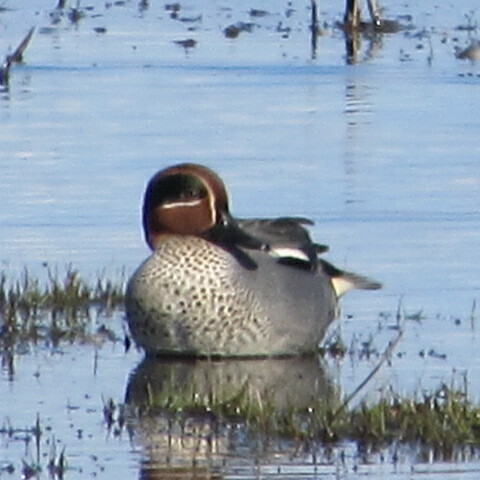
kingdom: Animalia
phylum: Chordata
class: Aves
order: Anseriformes
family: Anatidae
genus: Anas
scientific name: Anas crecca
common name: Eurasian teal
